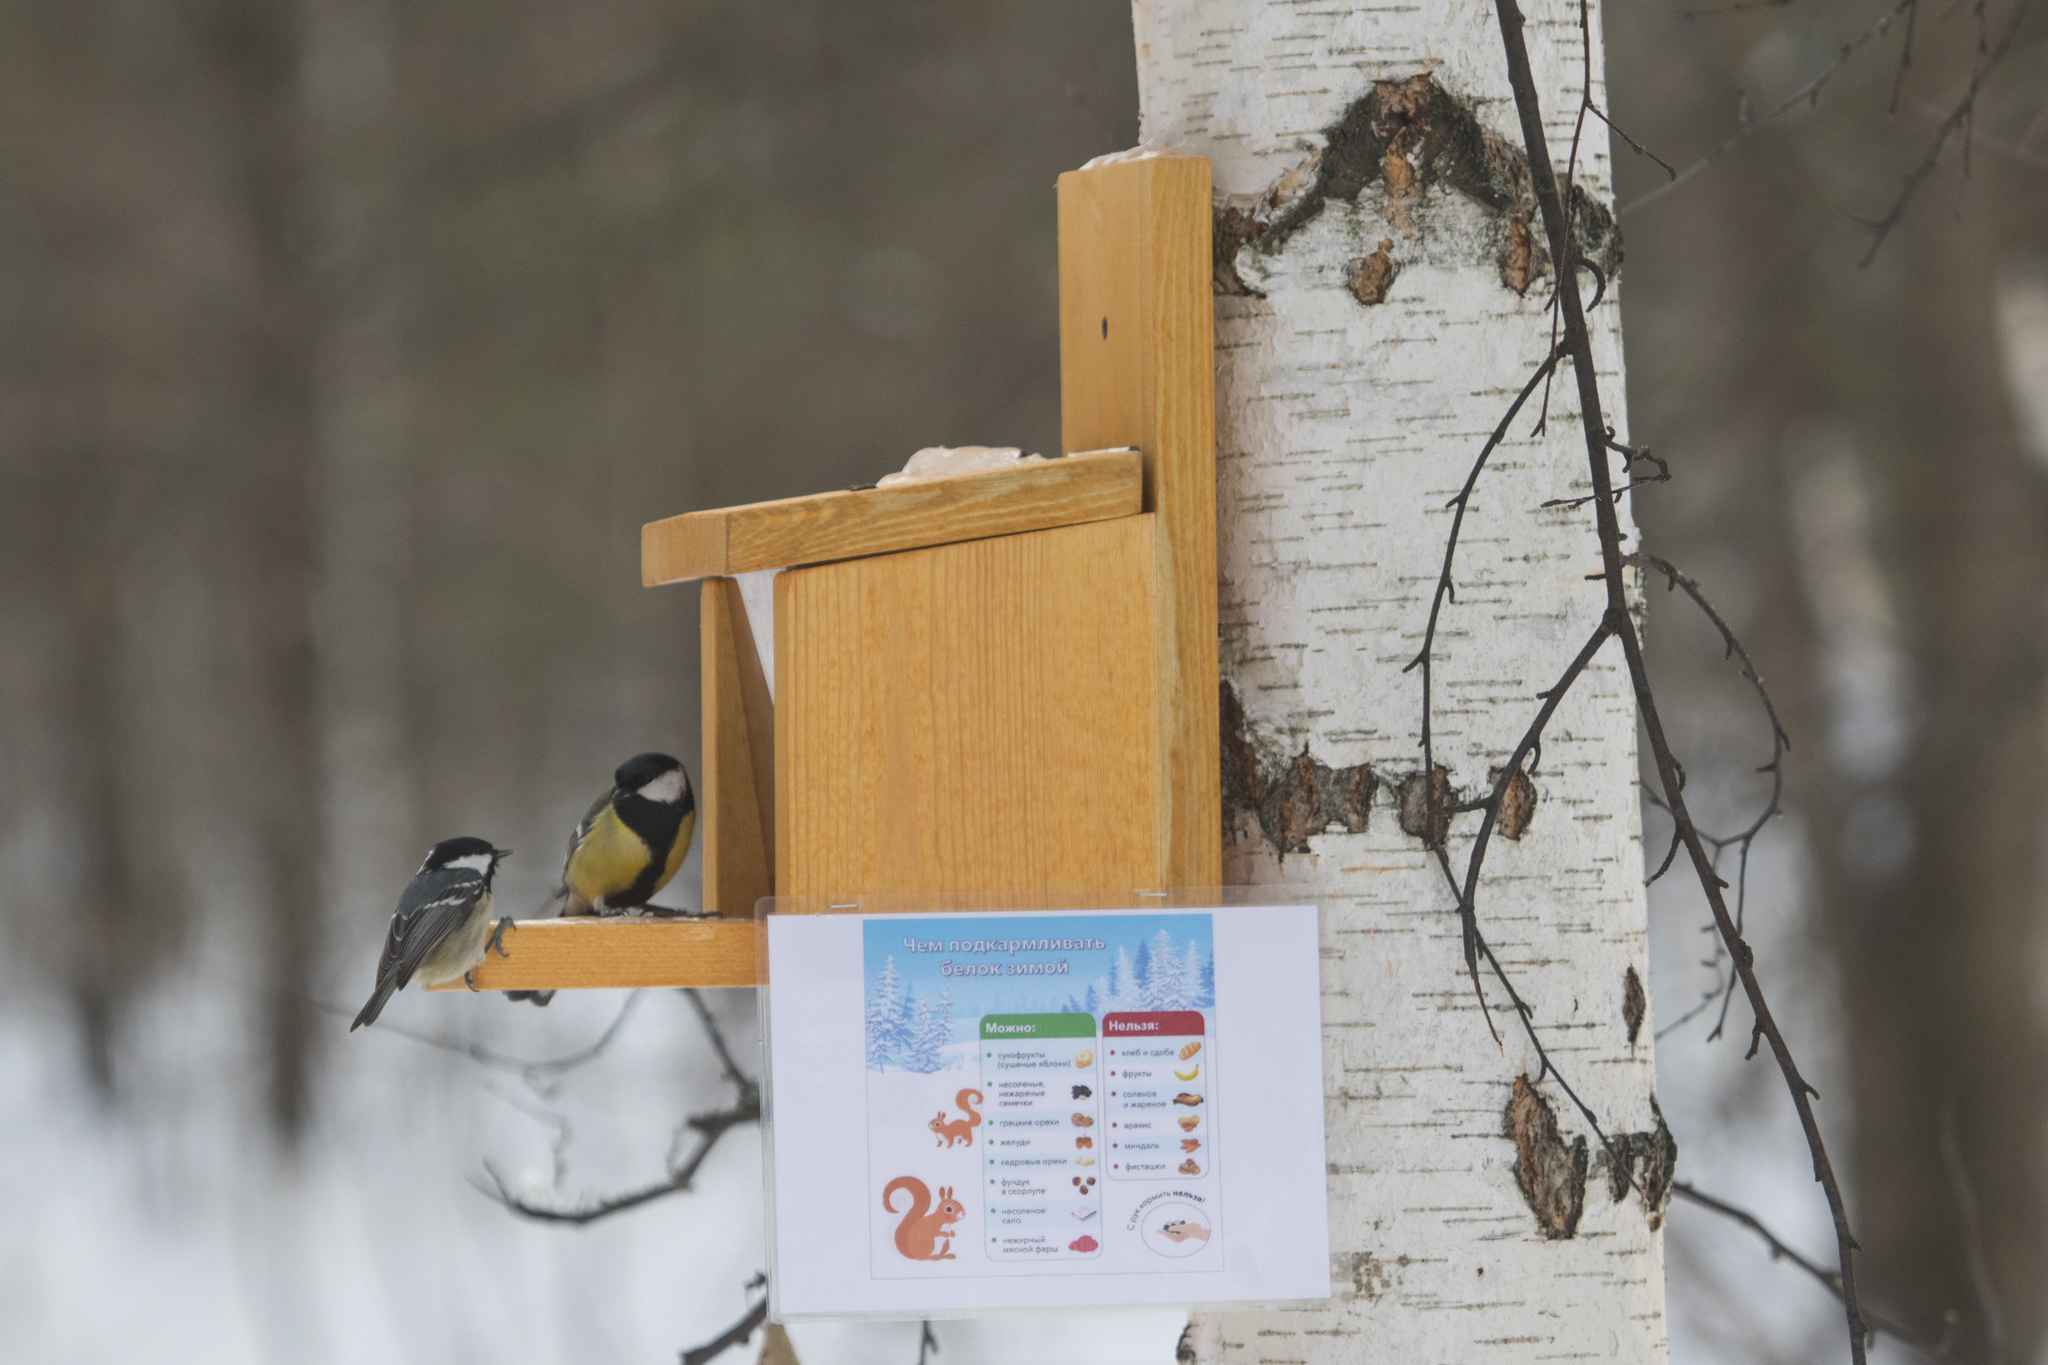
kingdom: Animalia
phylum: Chordata
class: Aves
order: Passeriformes
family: Paridae
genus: Periparus
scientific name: Periparus ater
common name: Coal tit
